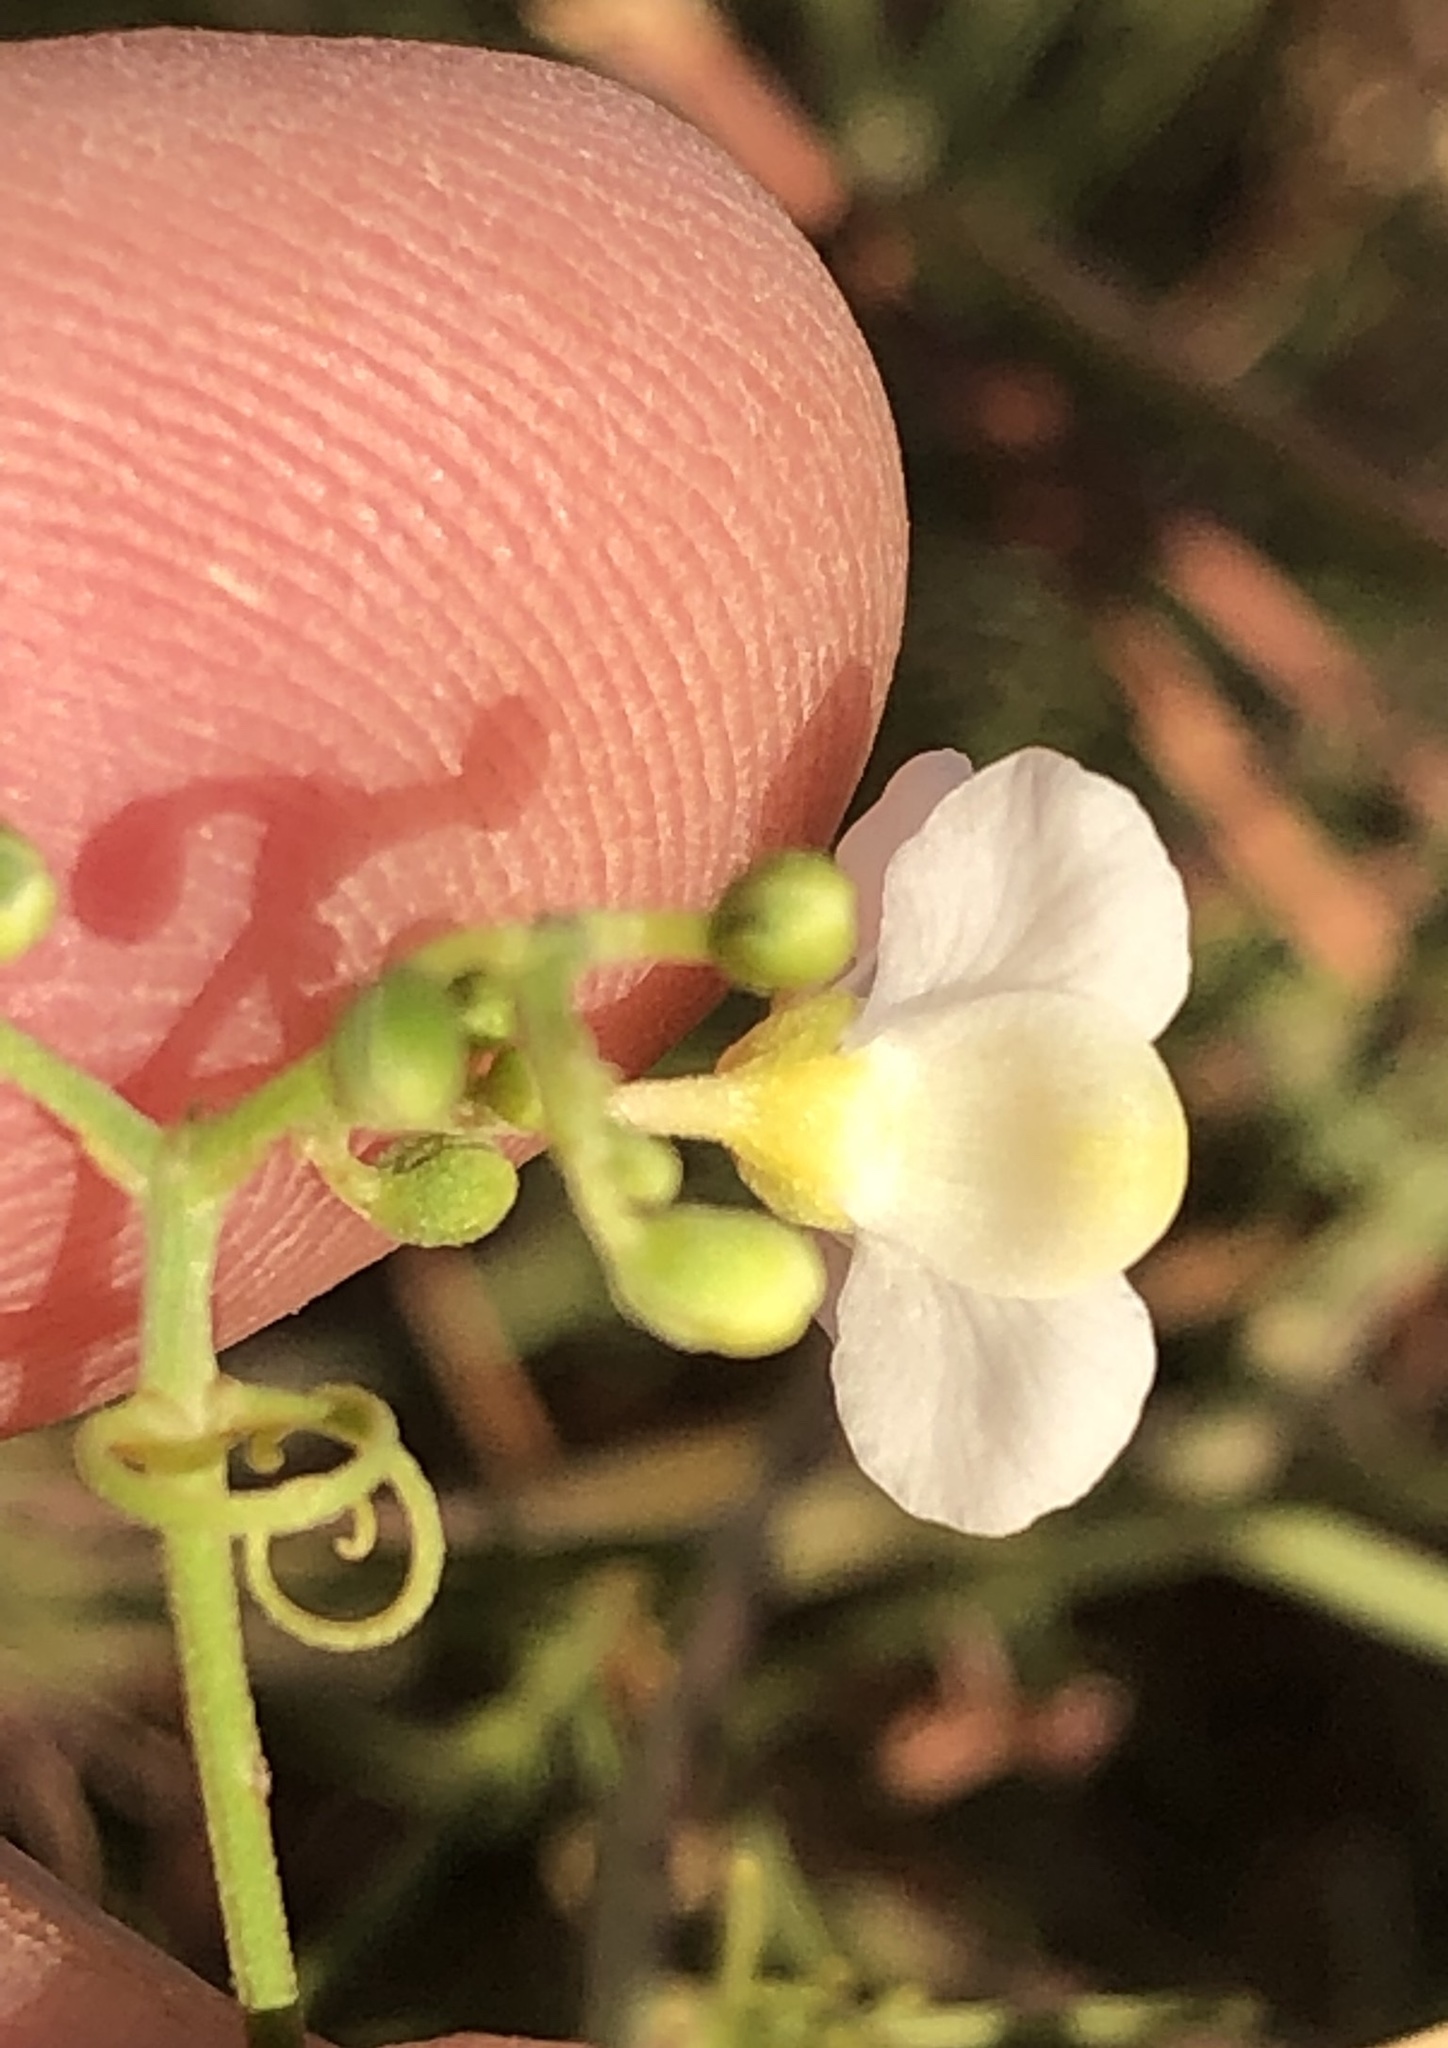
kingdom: Plantae
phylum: Tracheophyta
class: Magnoliopsida
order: Sapindales
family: Sapindaceae
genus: Cardiospermum
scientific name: Cardiospermum corindum
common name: Faux persil
